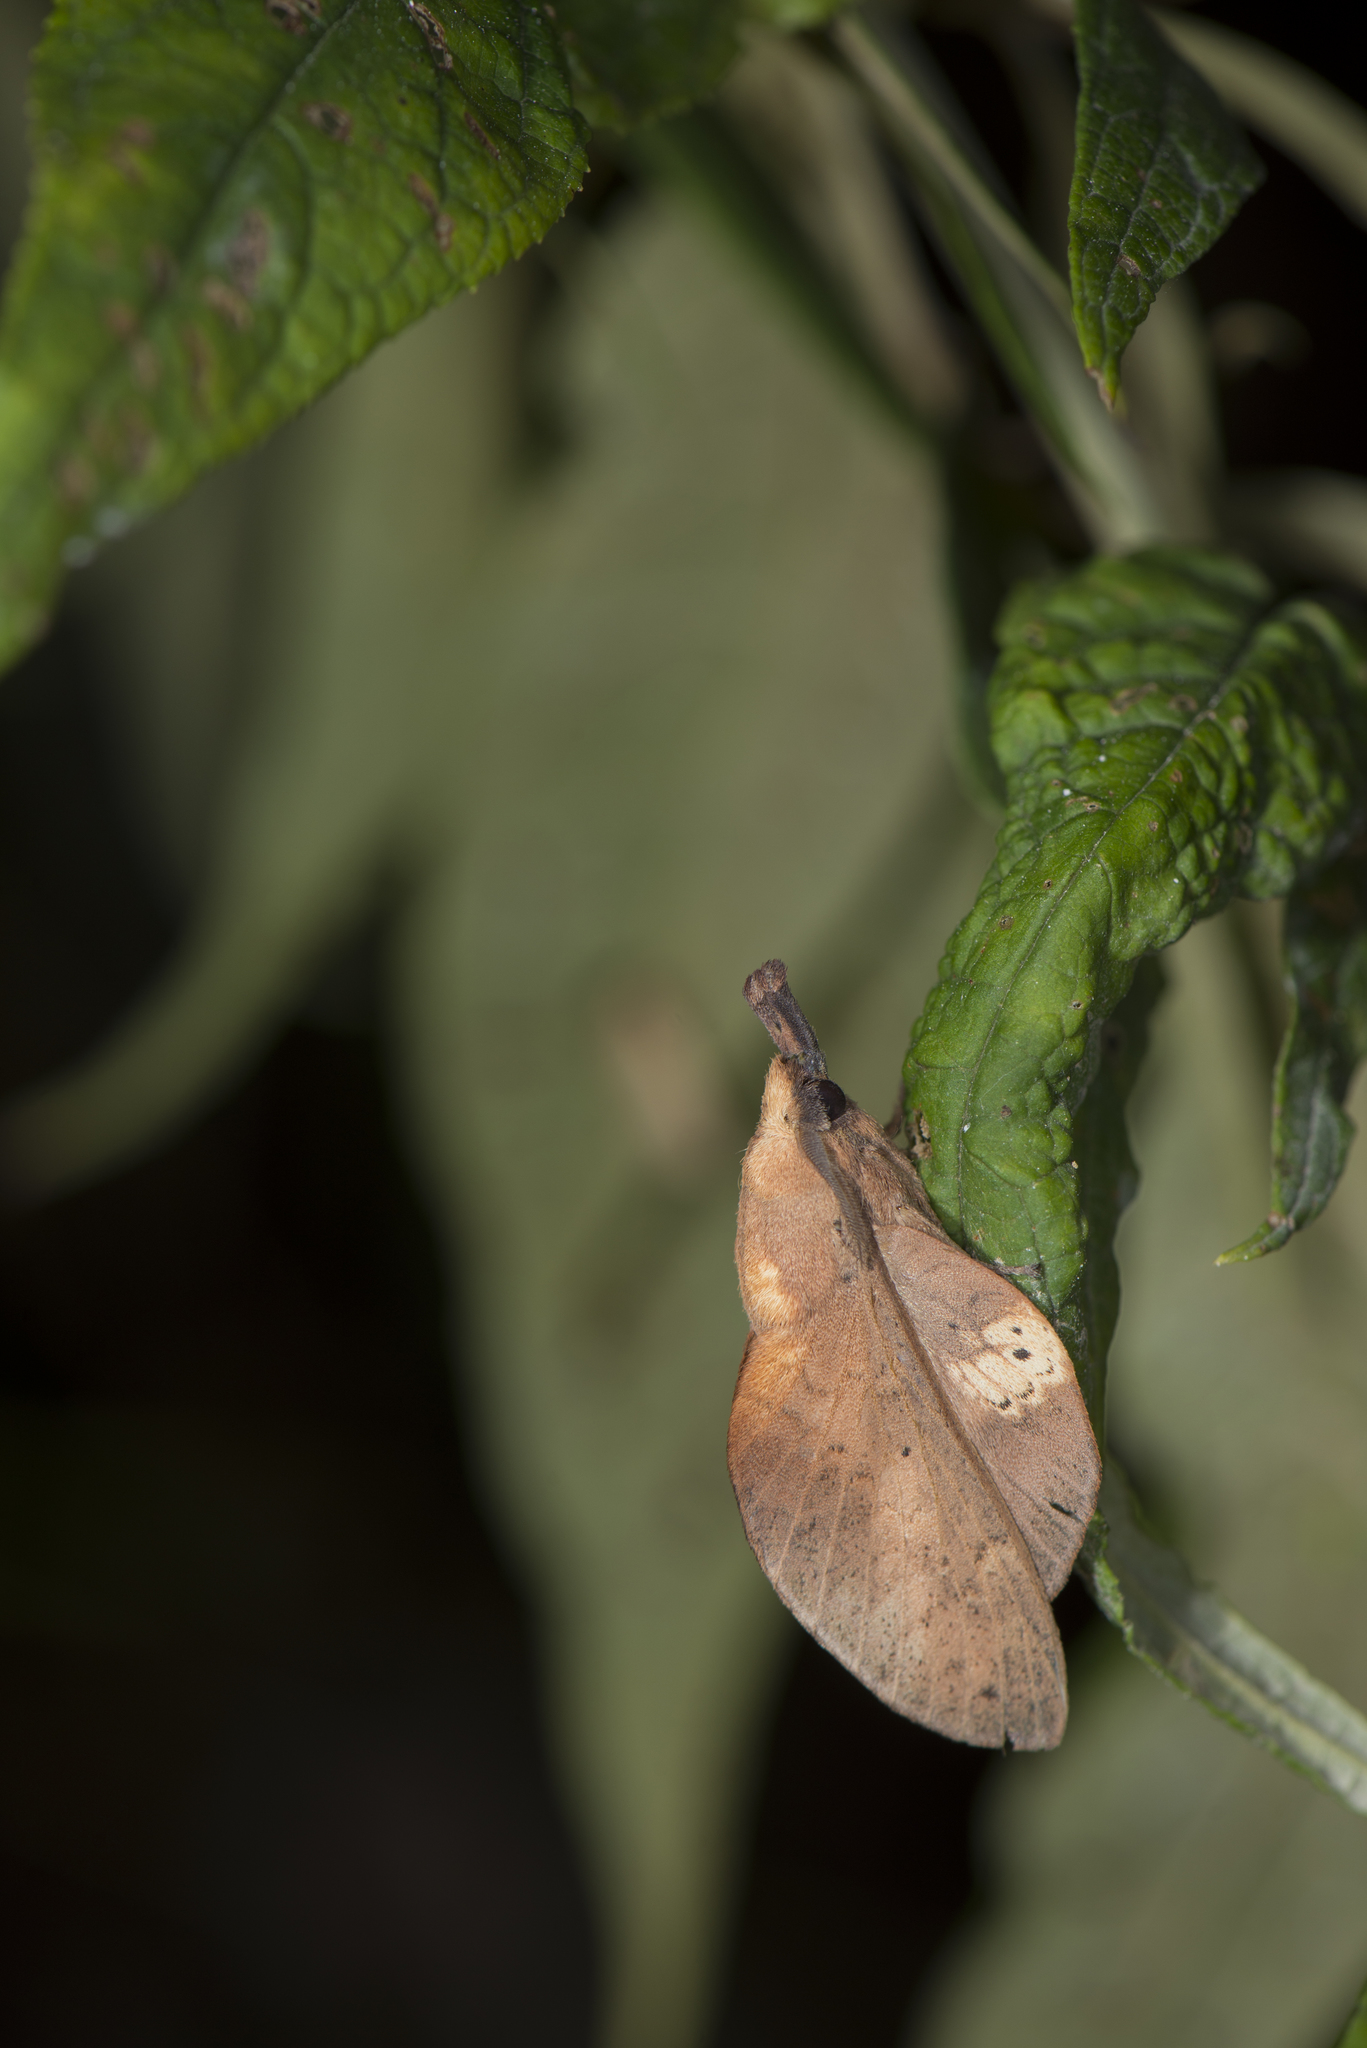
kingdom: Animalia
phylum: Arthropoda
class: Insecta
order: Lepidoptera
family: Lasiocampidae
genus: Gastropacha
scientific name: Gastropacha pardale
